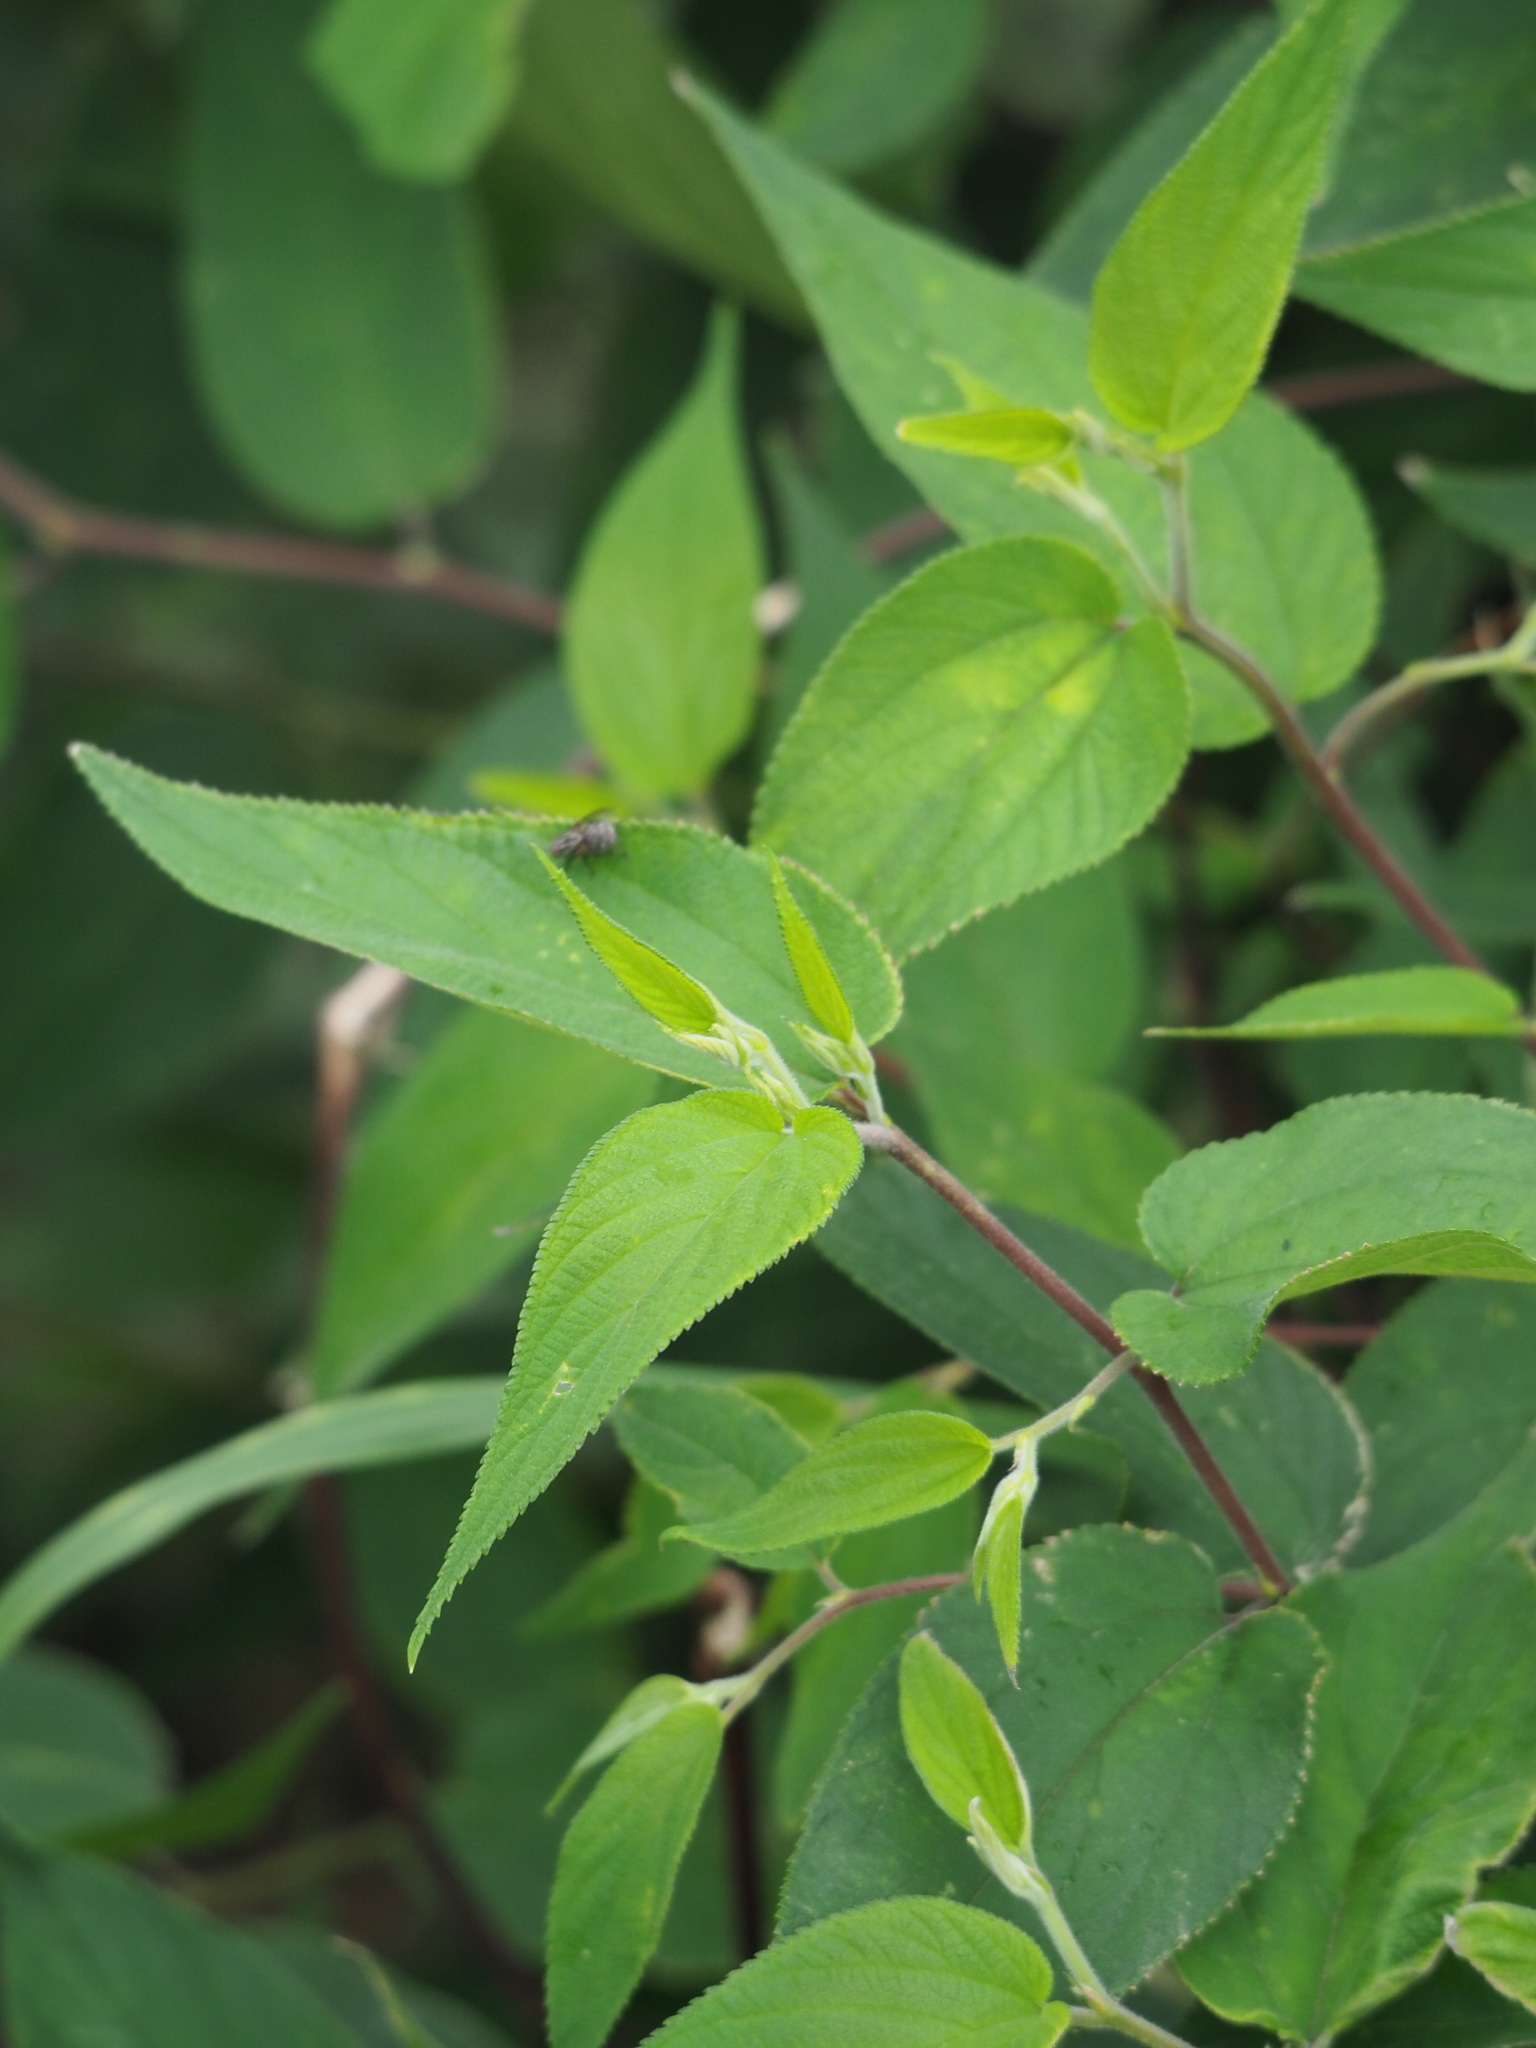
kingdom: Plantae
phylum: Tracheophyta
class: Magnoliopsida
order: Rosales
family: Cannabaceae
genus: Trema
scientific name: Trema tomentosum
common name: Peach-leaf-poisonbush
